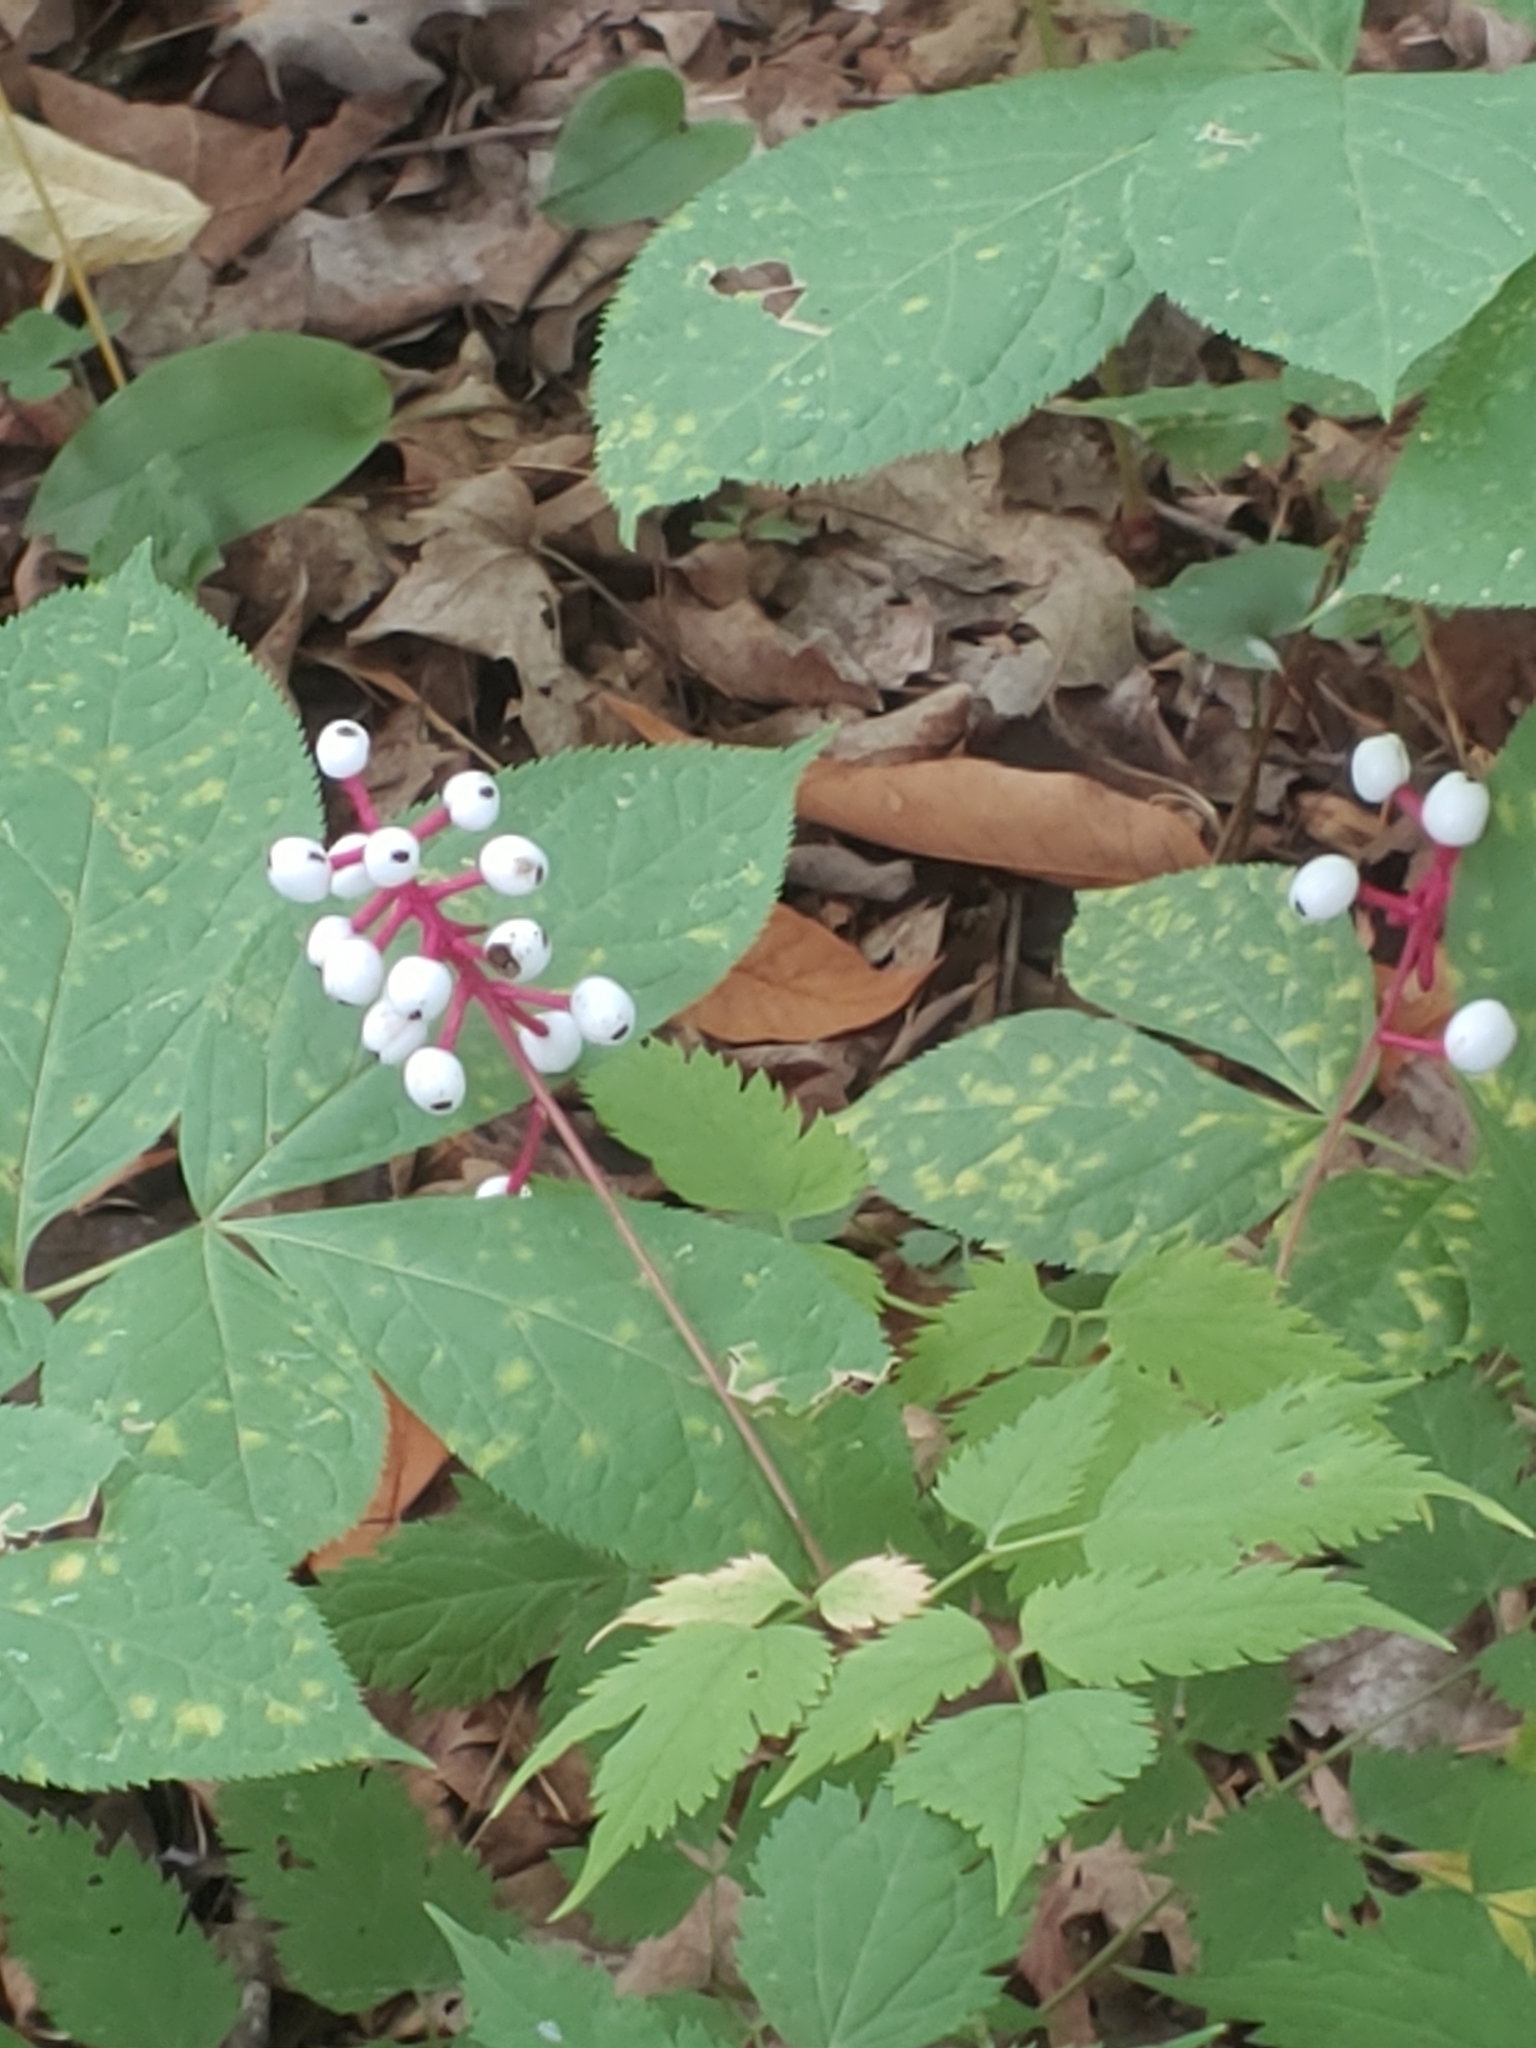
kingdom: Plantae
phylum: Tracheophyta
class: Magnoliopsida
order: Ranunculales
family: Ranunculaceae
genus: Actaea
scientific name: Actaea pachypoda
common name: Doll's-eyes
